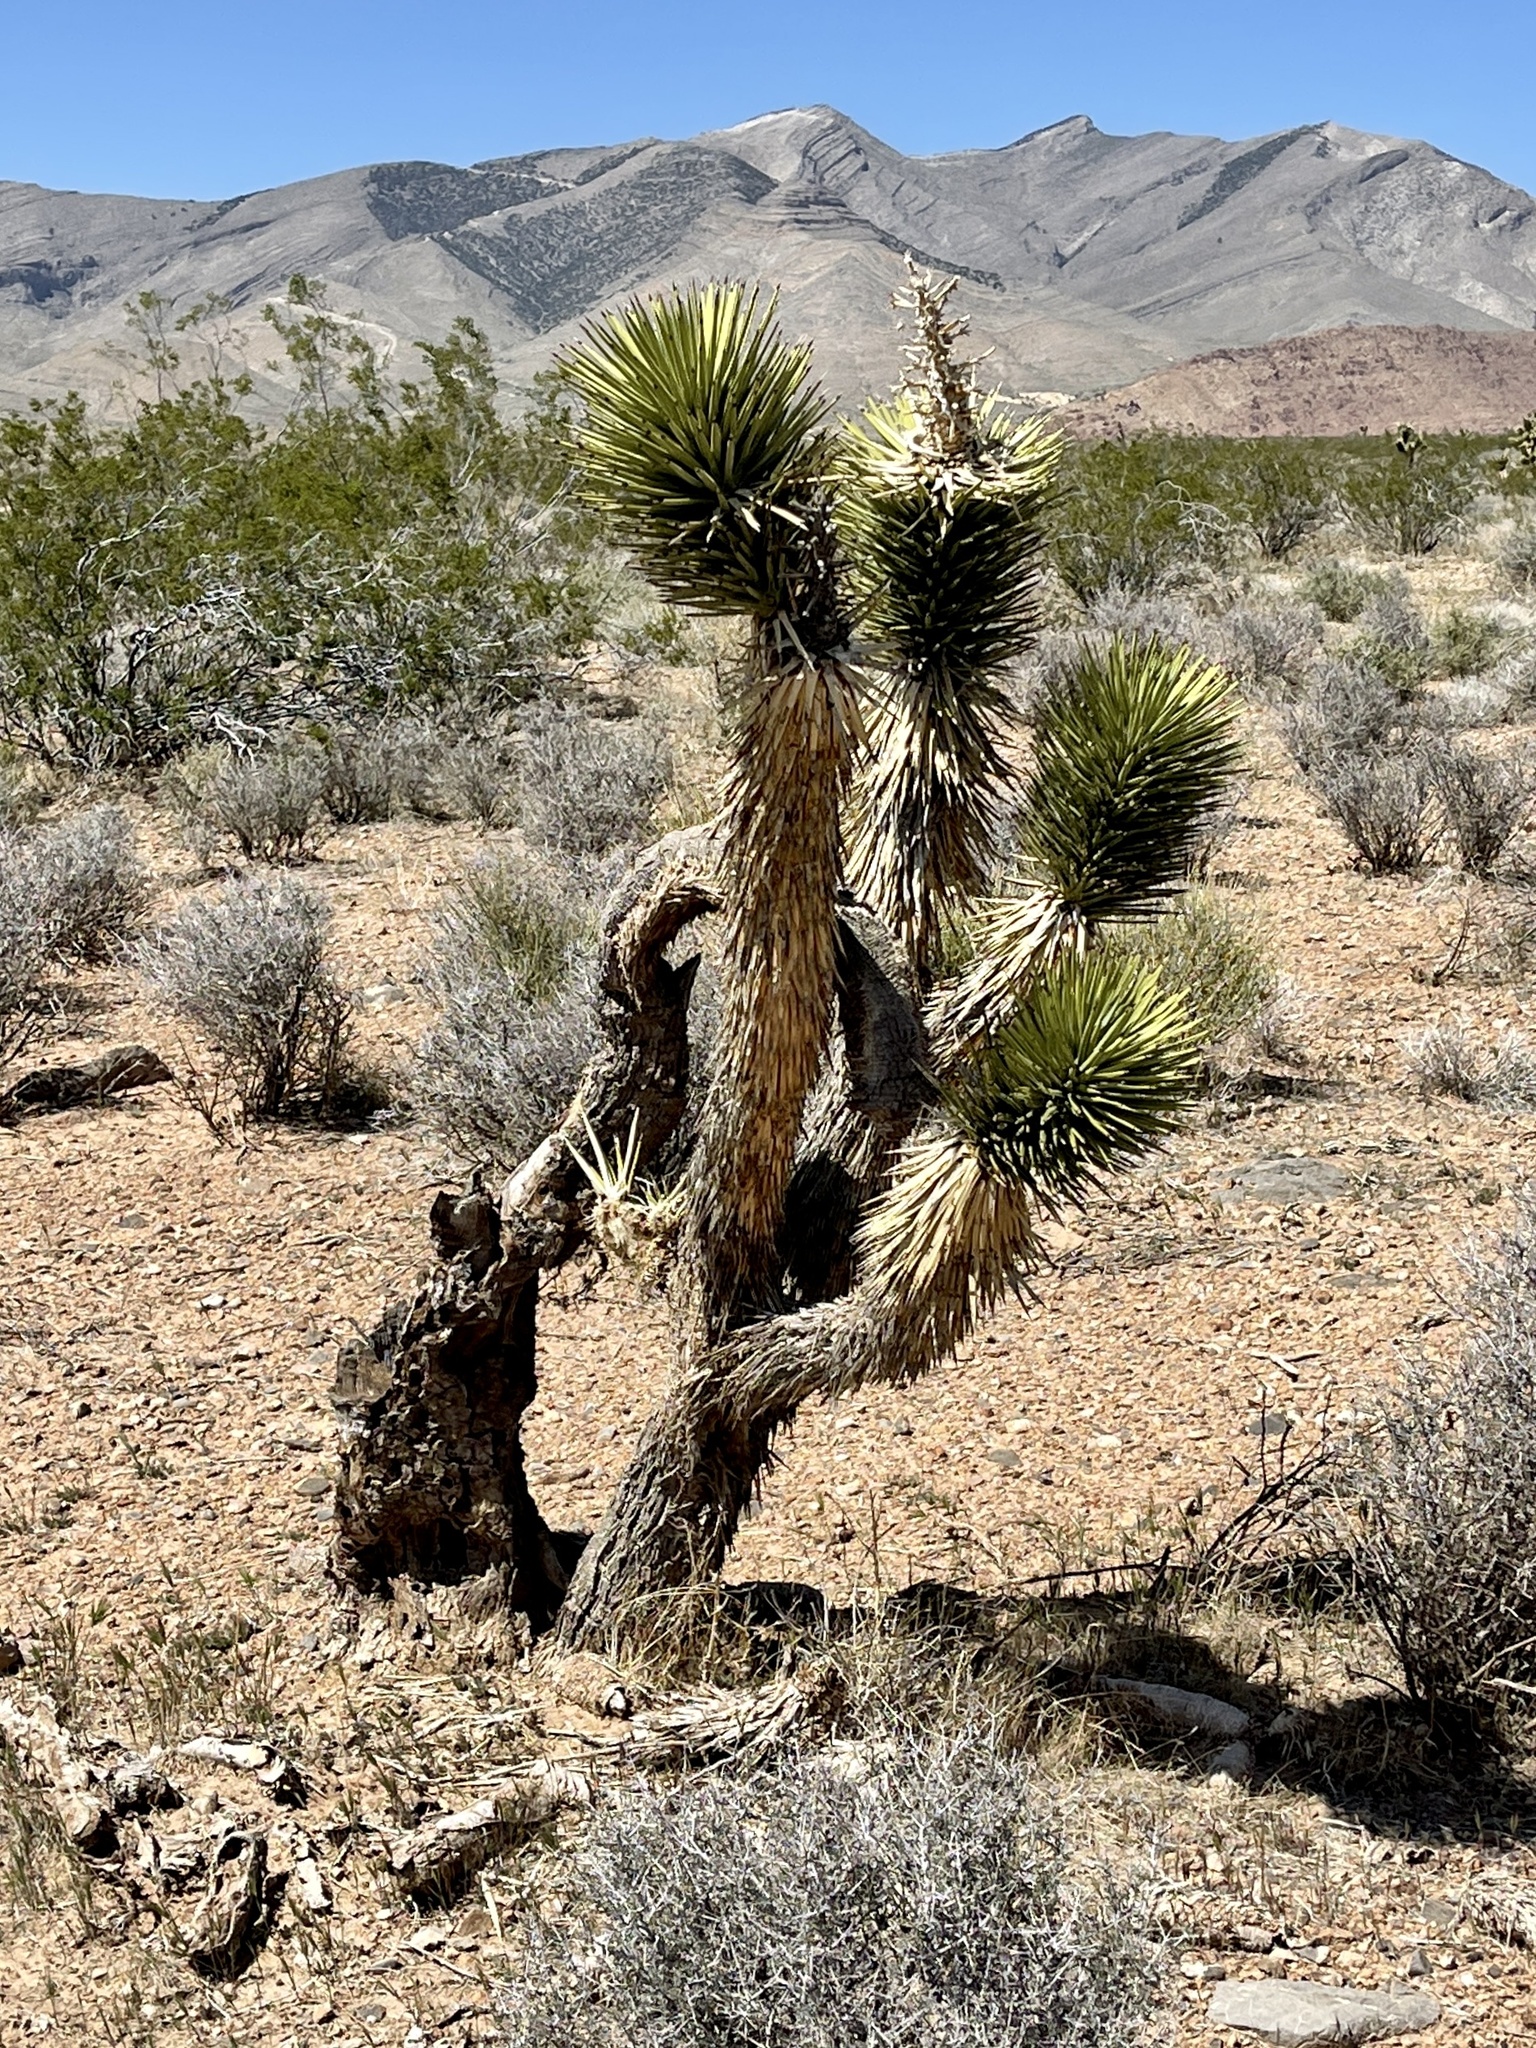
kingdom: Plantae
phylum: Tracheophyta
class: Liliopsida
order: Asparagales
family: Asparagaceae
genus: Yucca
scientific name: Yucca brevifolia
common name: Joshua tree
